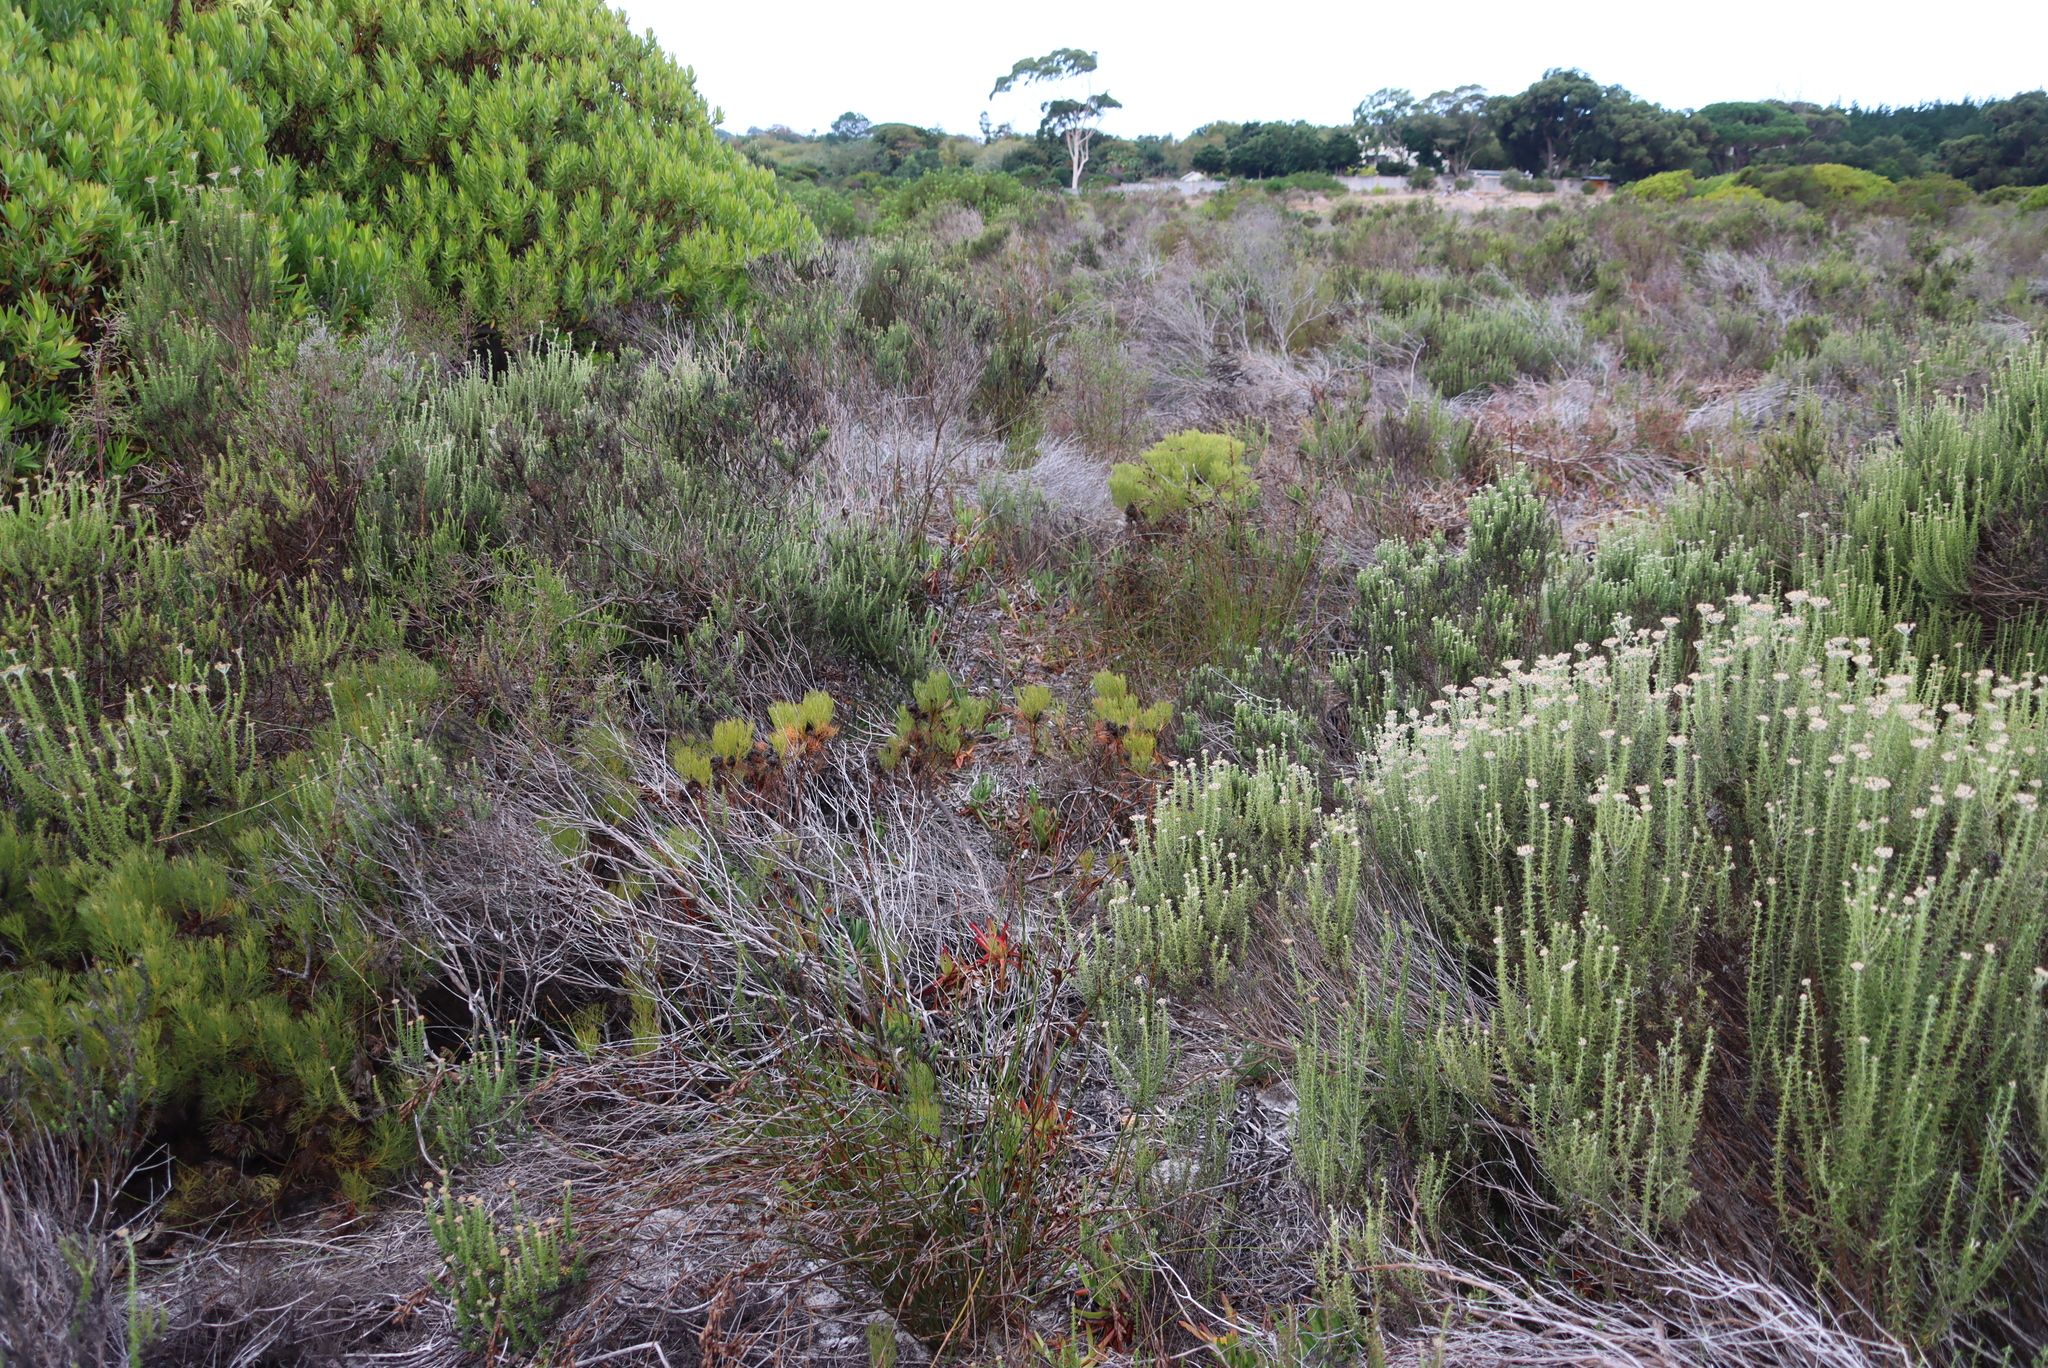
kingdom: Plantae
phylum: Tracheophyta
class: Magnoliopsida
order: Proteales
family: Proteaceae
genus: Serruria
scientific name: Serruria glomerata
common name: Cluster spiderhead
